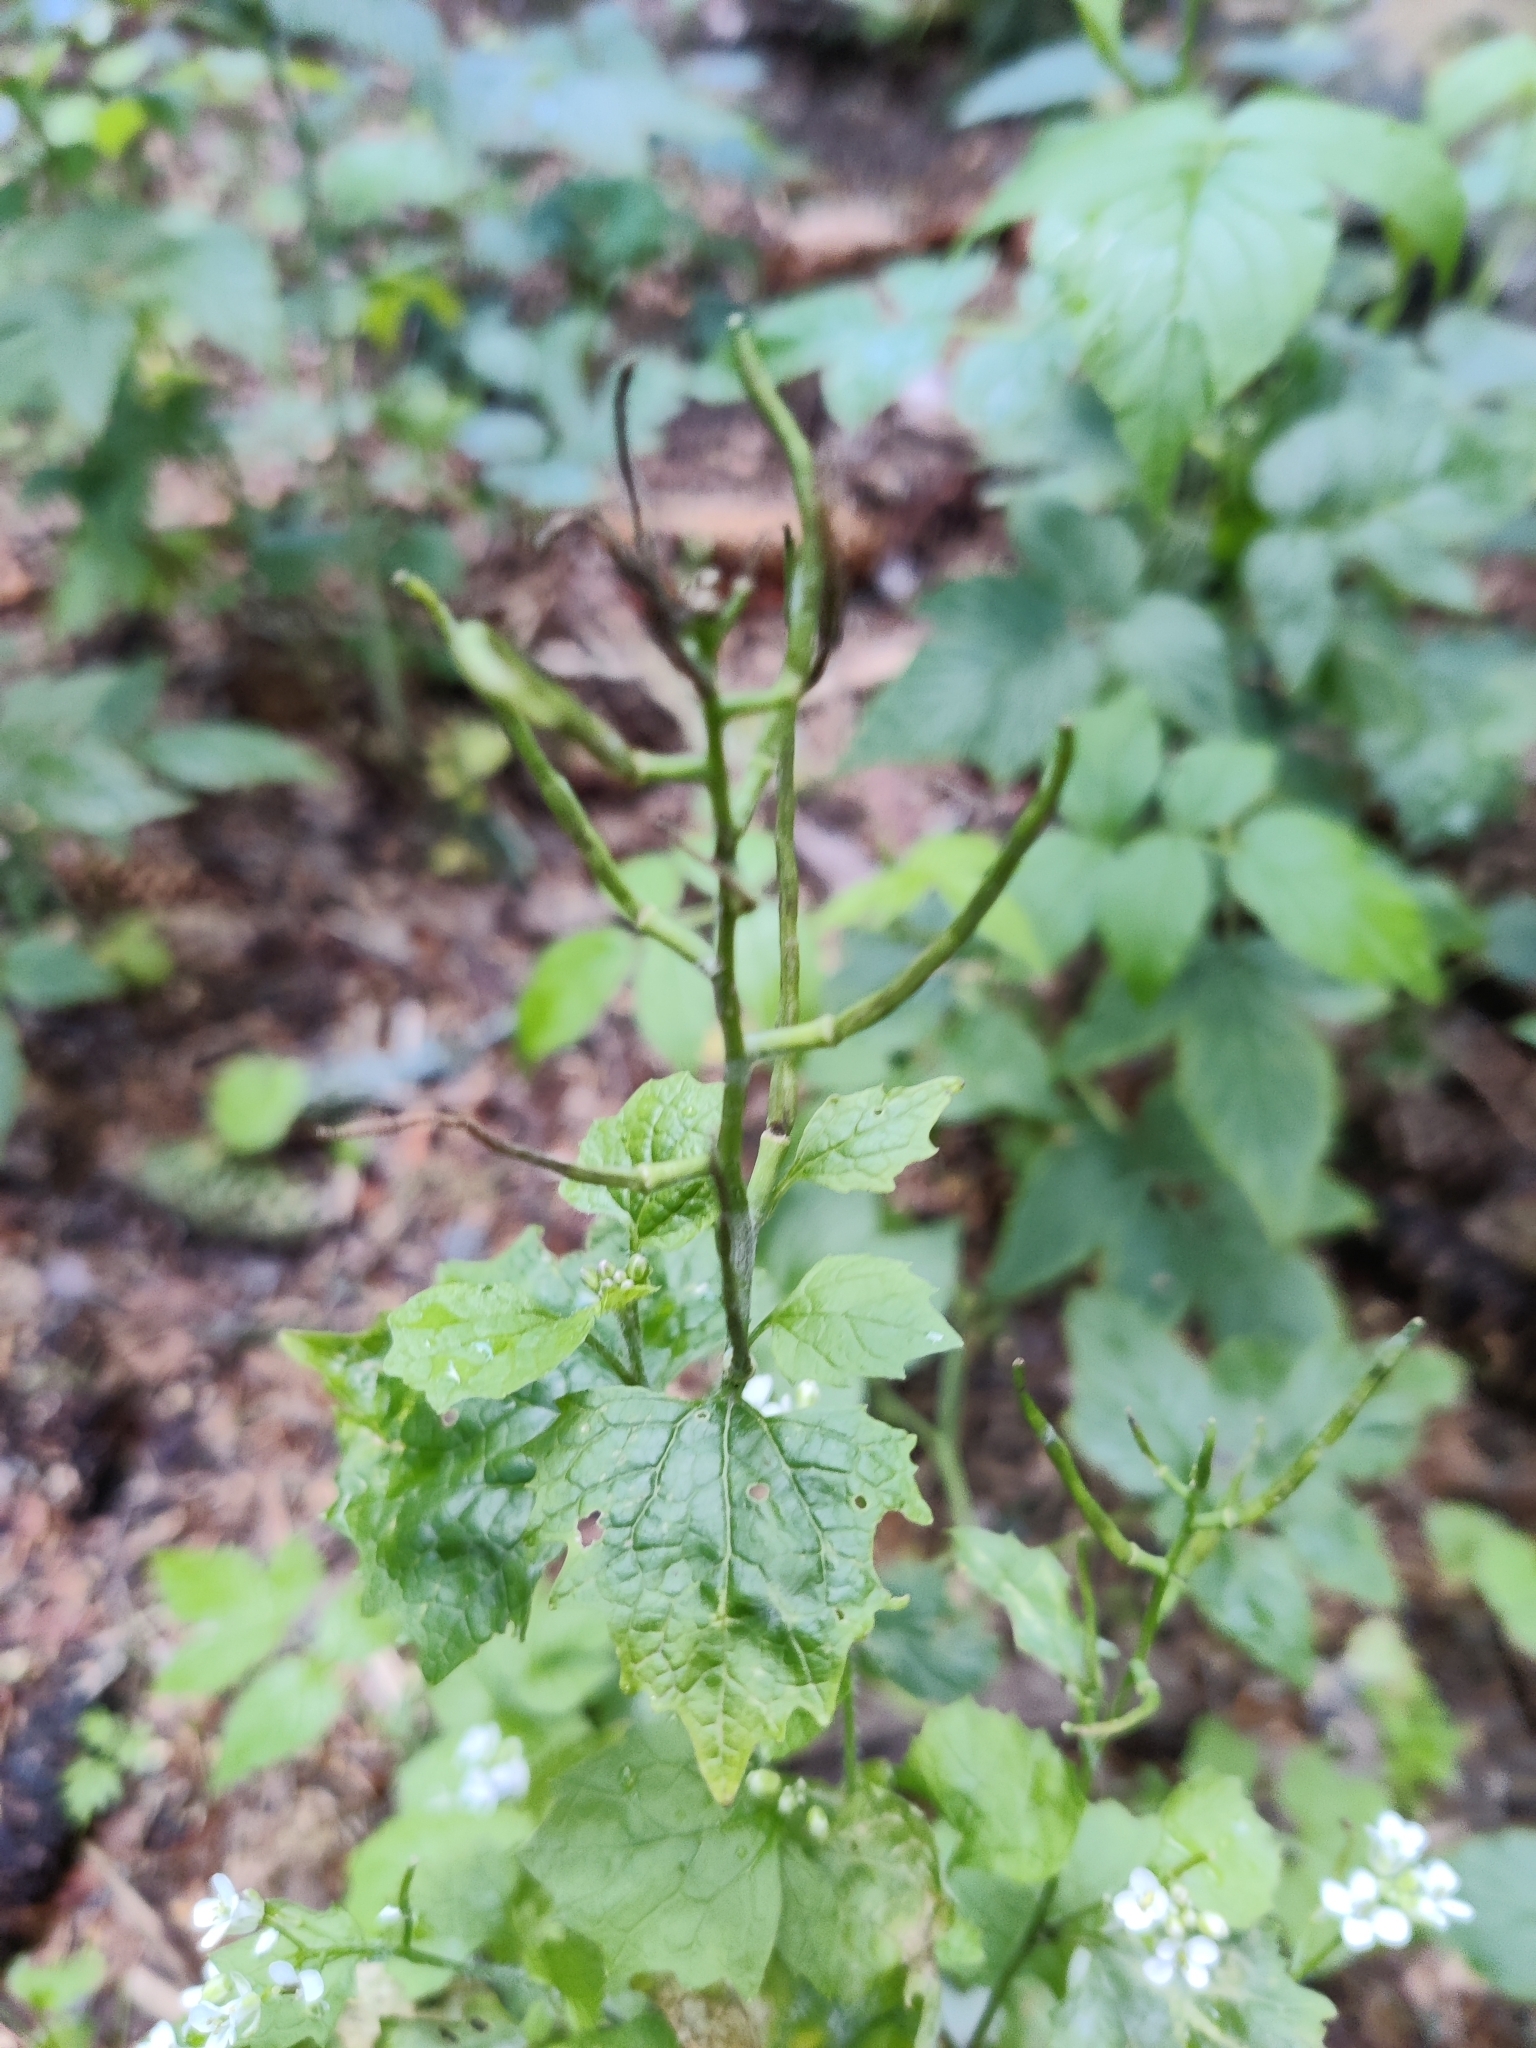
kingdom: Plantae
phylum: Tracheophyta
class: Magnoliopsida
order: Brassicales
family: Brassicaceae
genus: Alliaria
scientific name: Alliaria petiolata
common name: Garlic mustard
